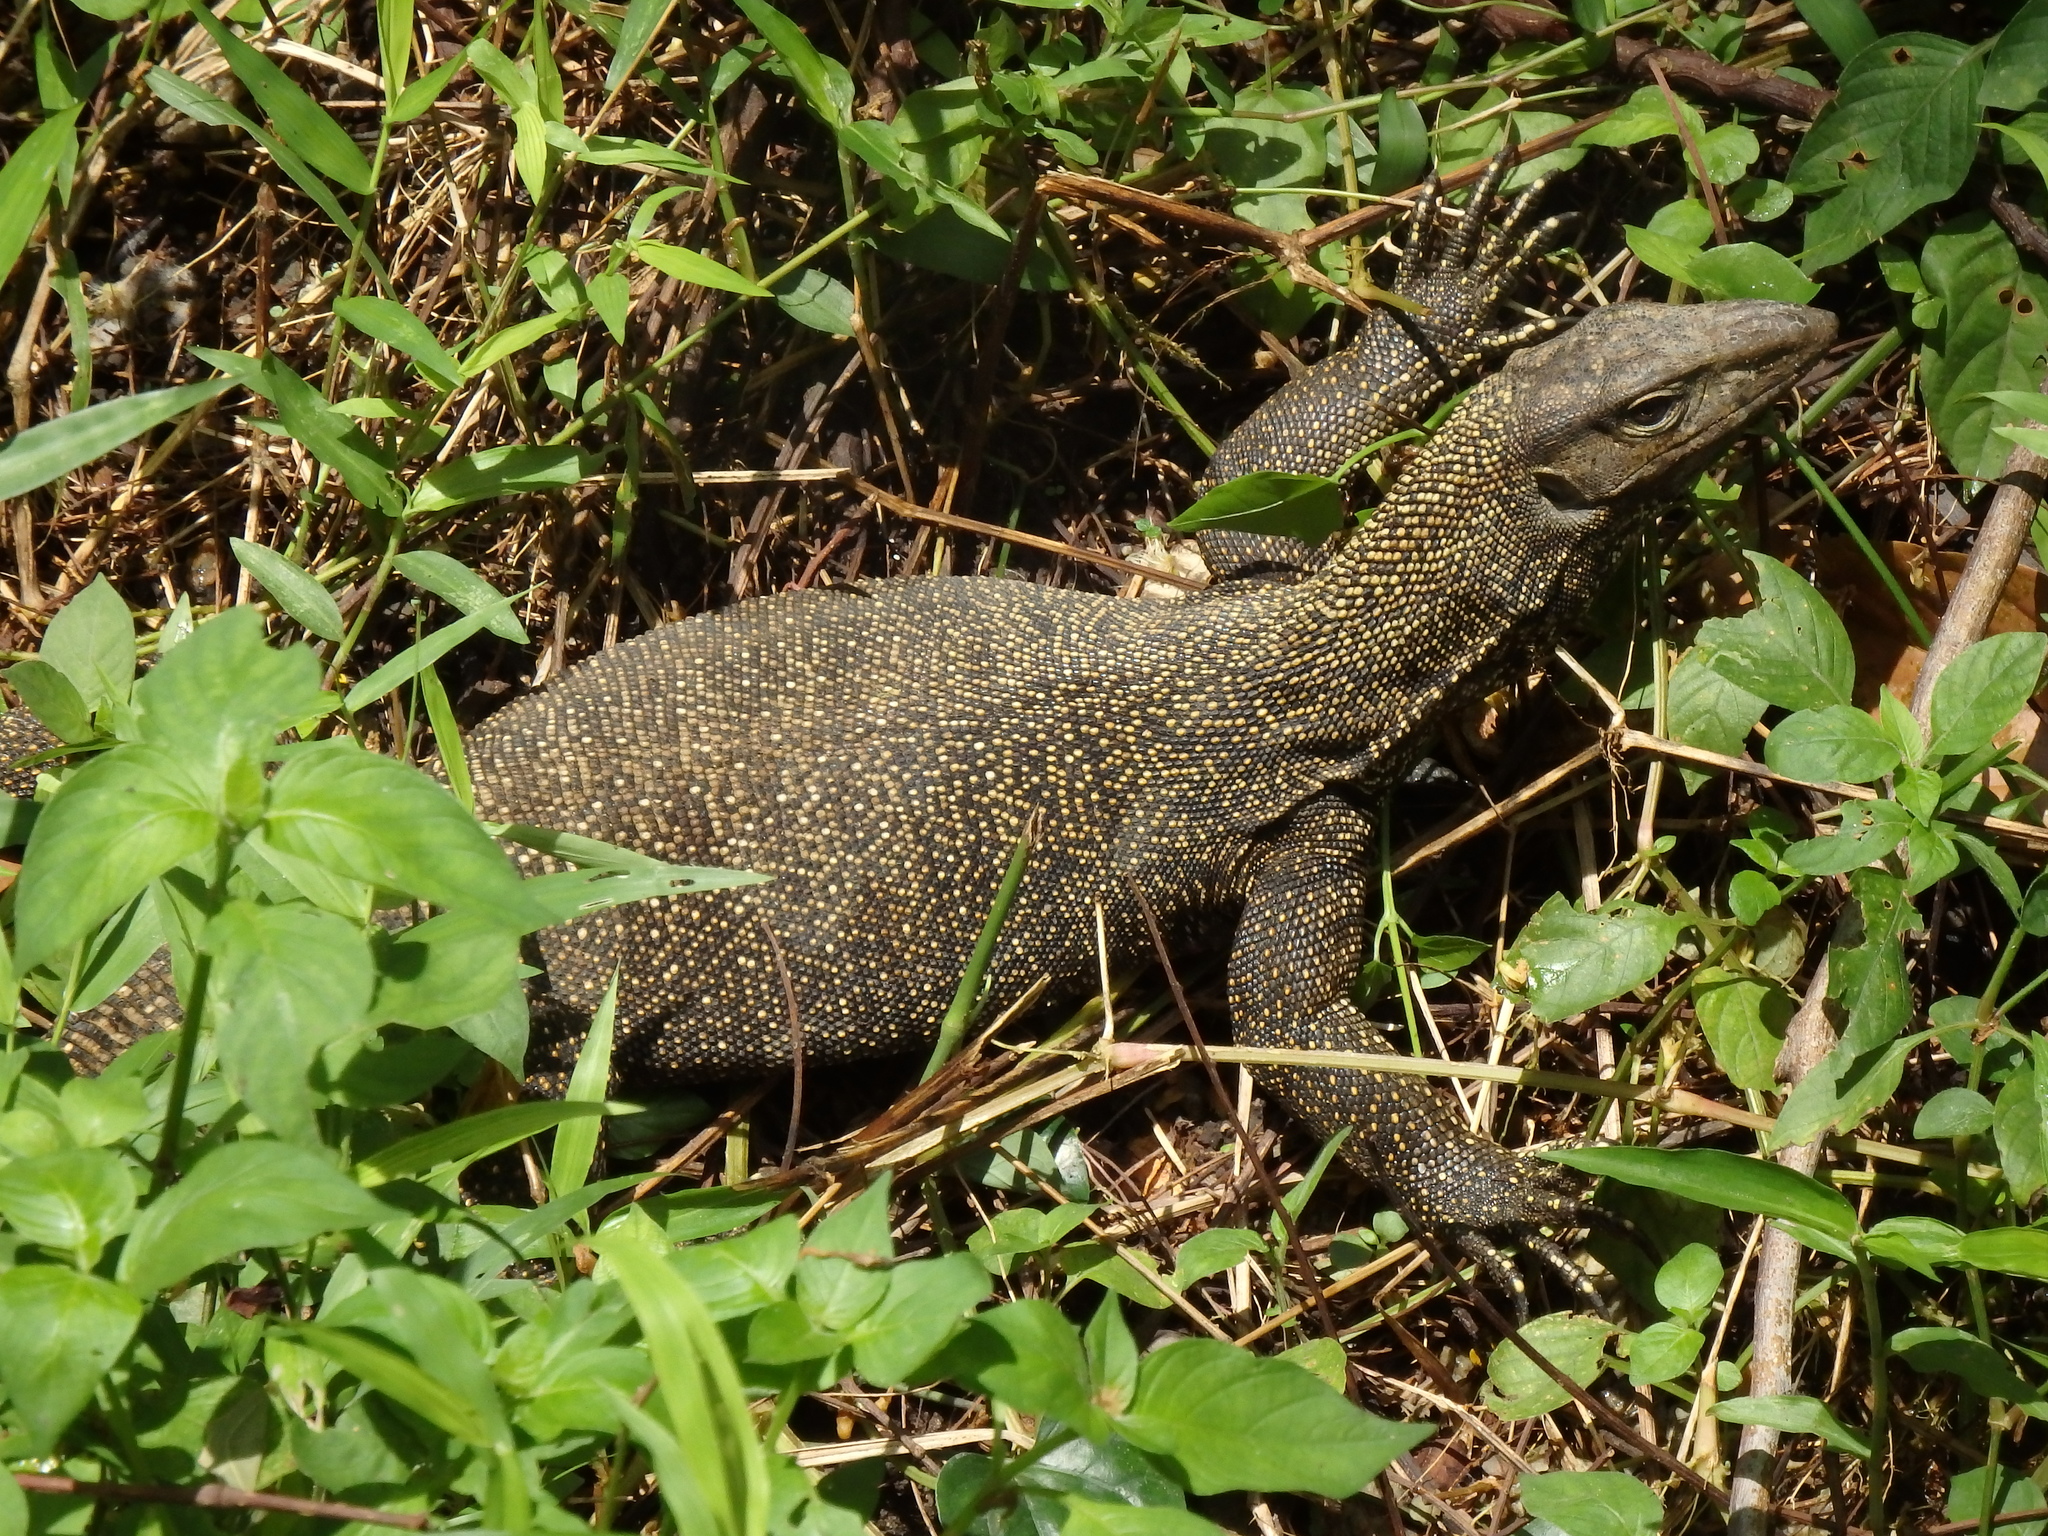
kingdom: Animalia
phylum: Chordata
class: Squamata
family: Varanidae
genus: Varanus
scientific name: Varanus nebulosus
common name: Clouded monitor
